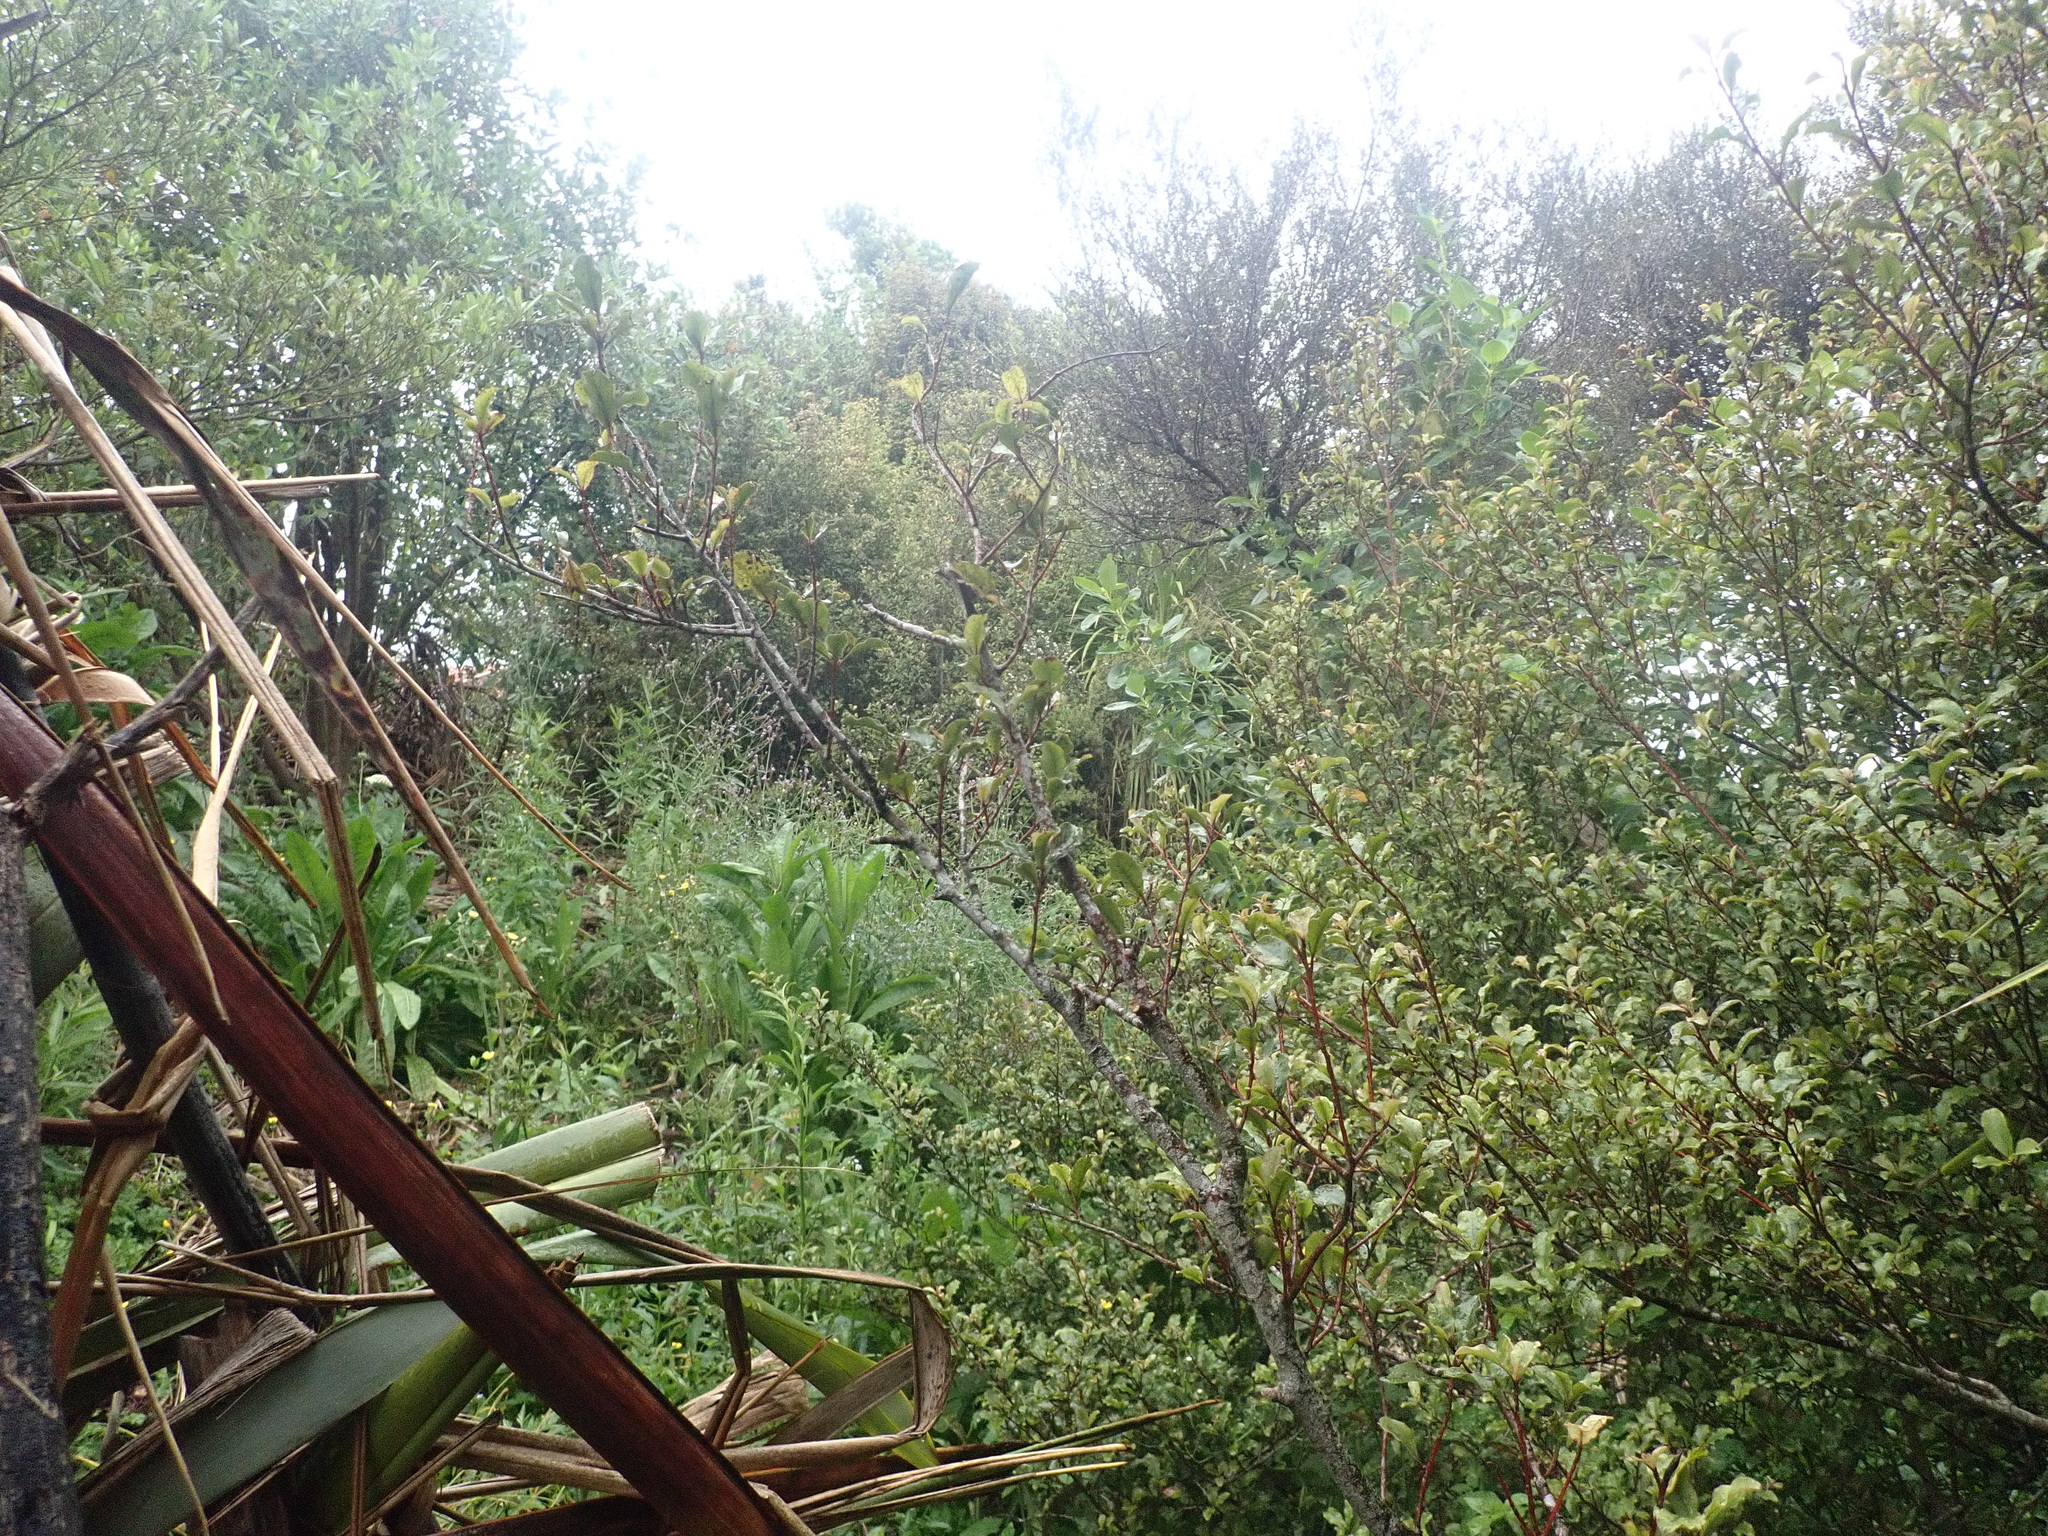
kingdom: Plantae
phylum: Tracheophyta
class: Magnoliopsida
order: Ericales
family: Primulaceae
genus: Myrsine
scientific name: Myrsine australis
